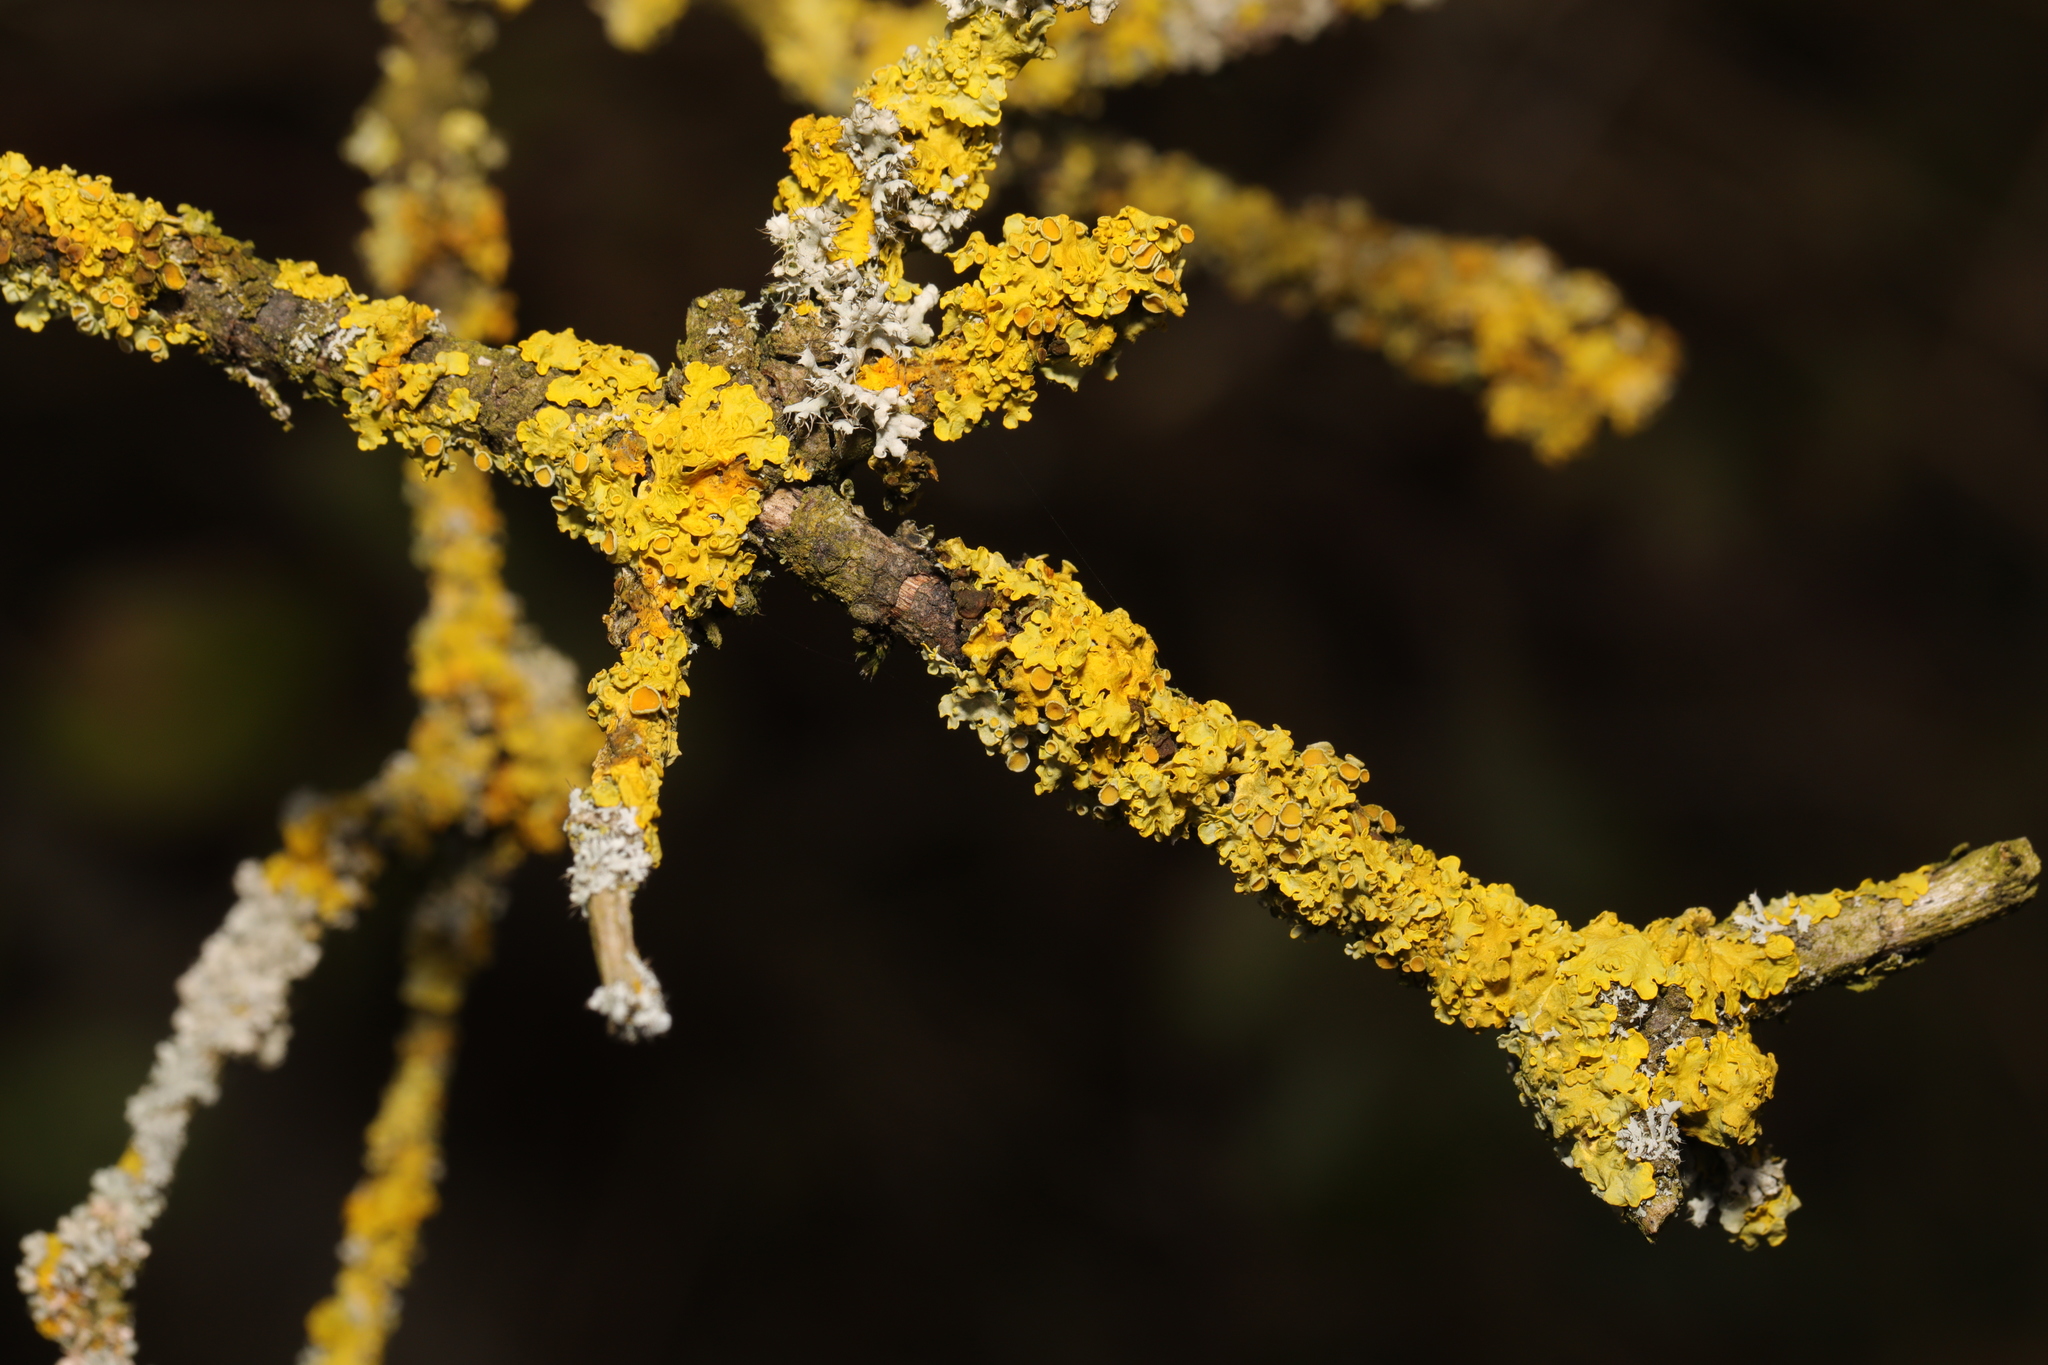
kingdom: Fungi
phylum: Ascomycota
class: Lecanoromycetes
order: Teloschistales
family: Teloschistaceae
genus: Xanthoria
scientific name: Xanthoria parietina
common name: Common orange lichen
